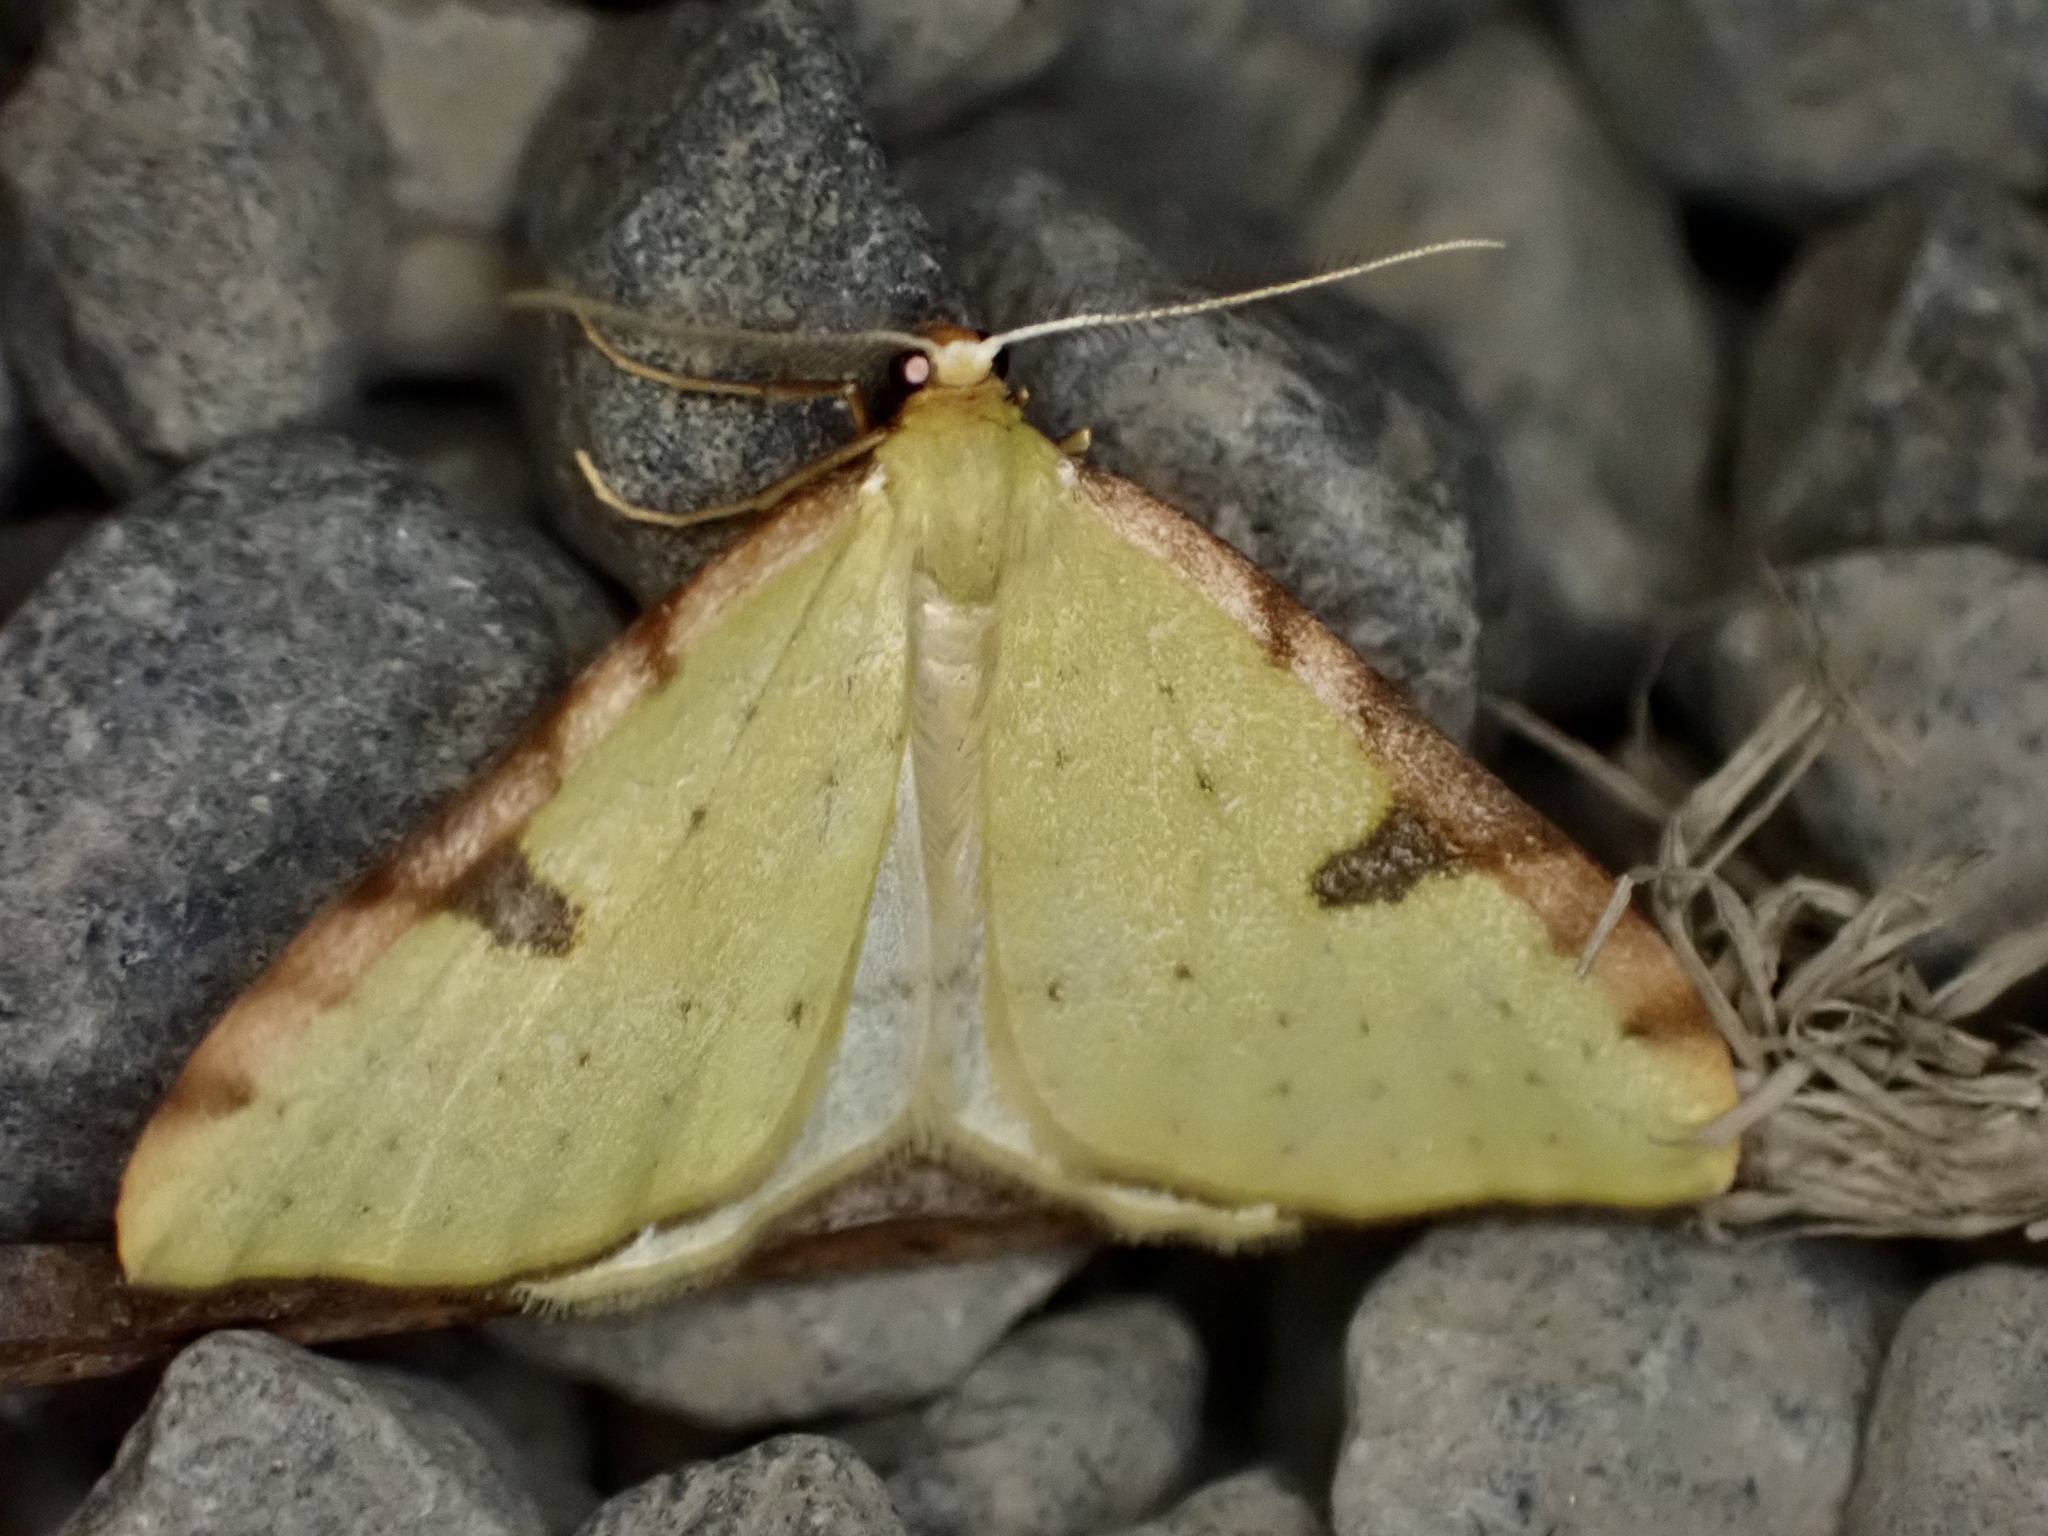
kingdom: Animalia
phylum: Arthropoda
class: Insecta
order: Lepidoptera
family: Geometridae
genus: Epiphryne
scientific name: Epiphryne xanthaspis
